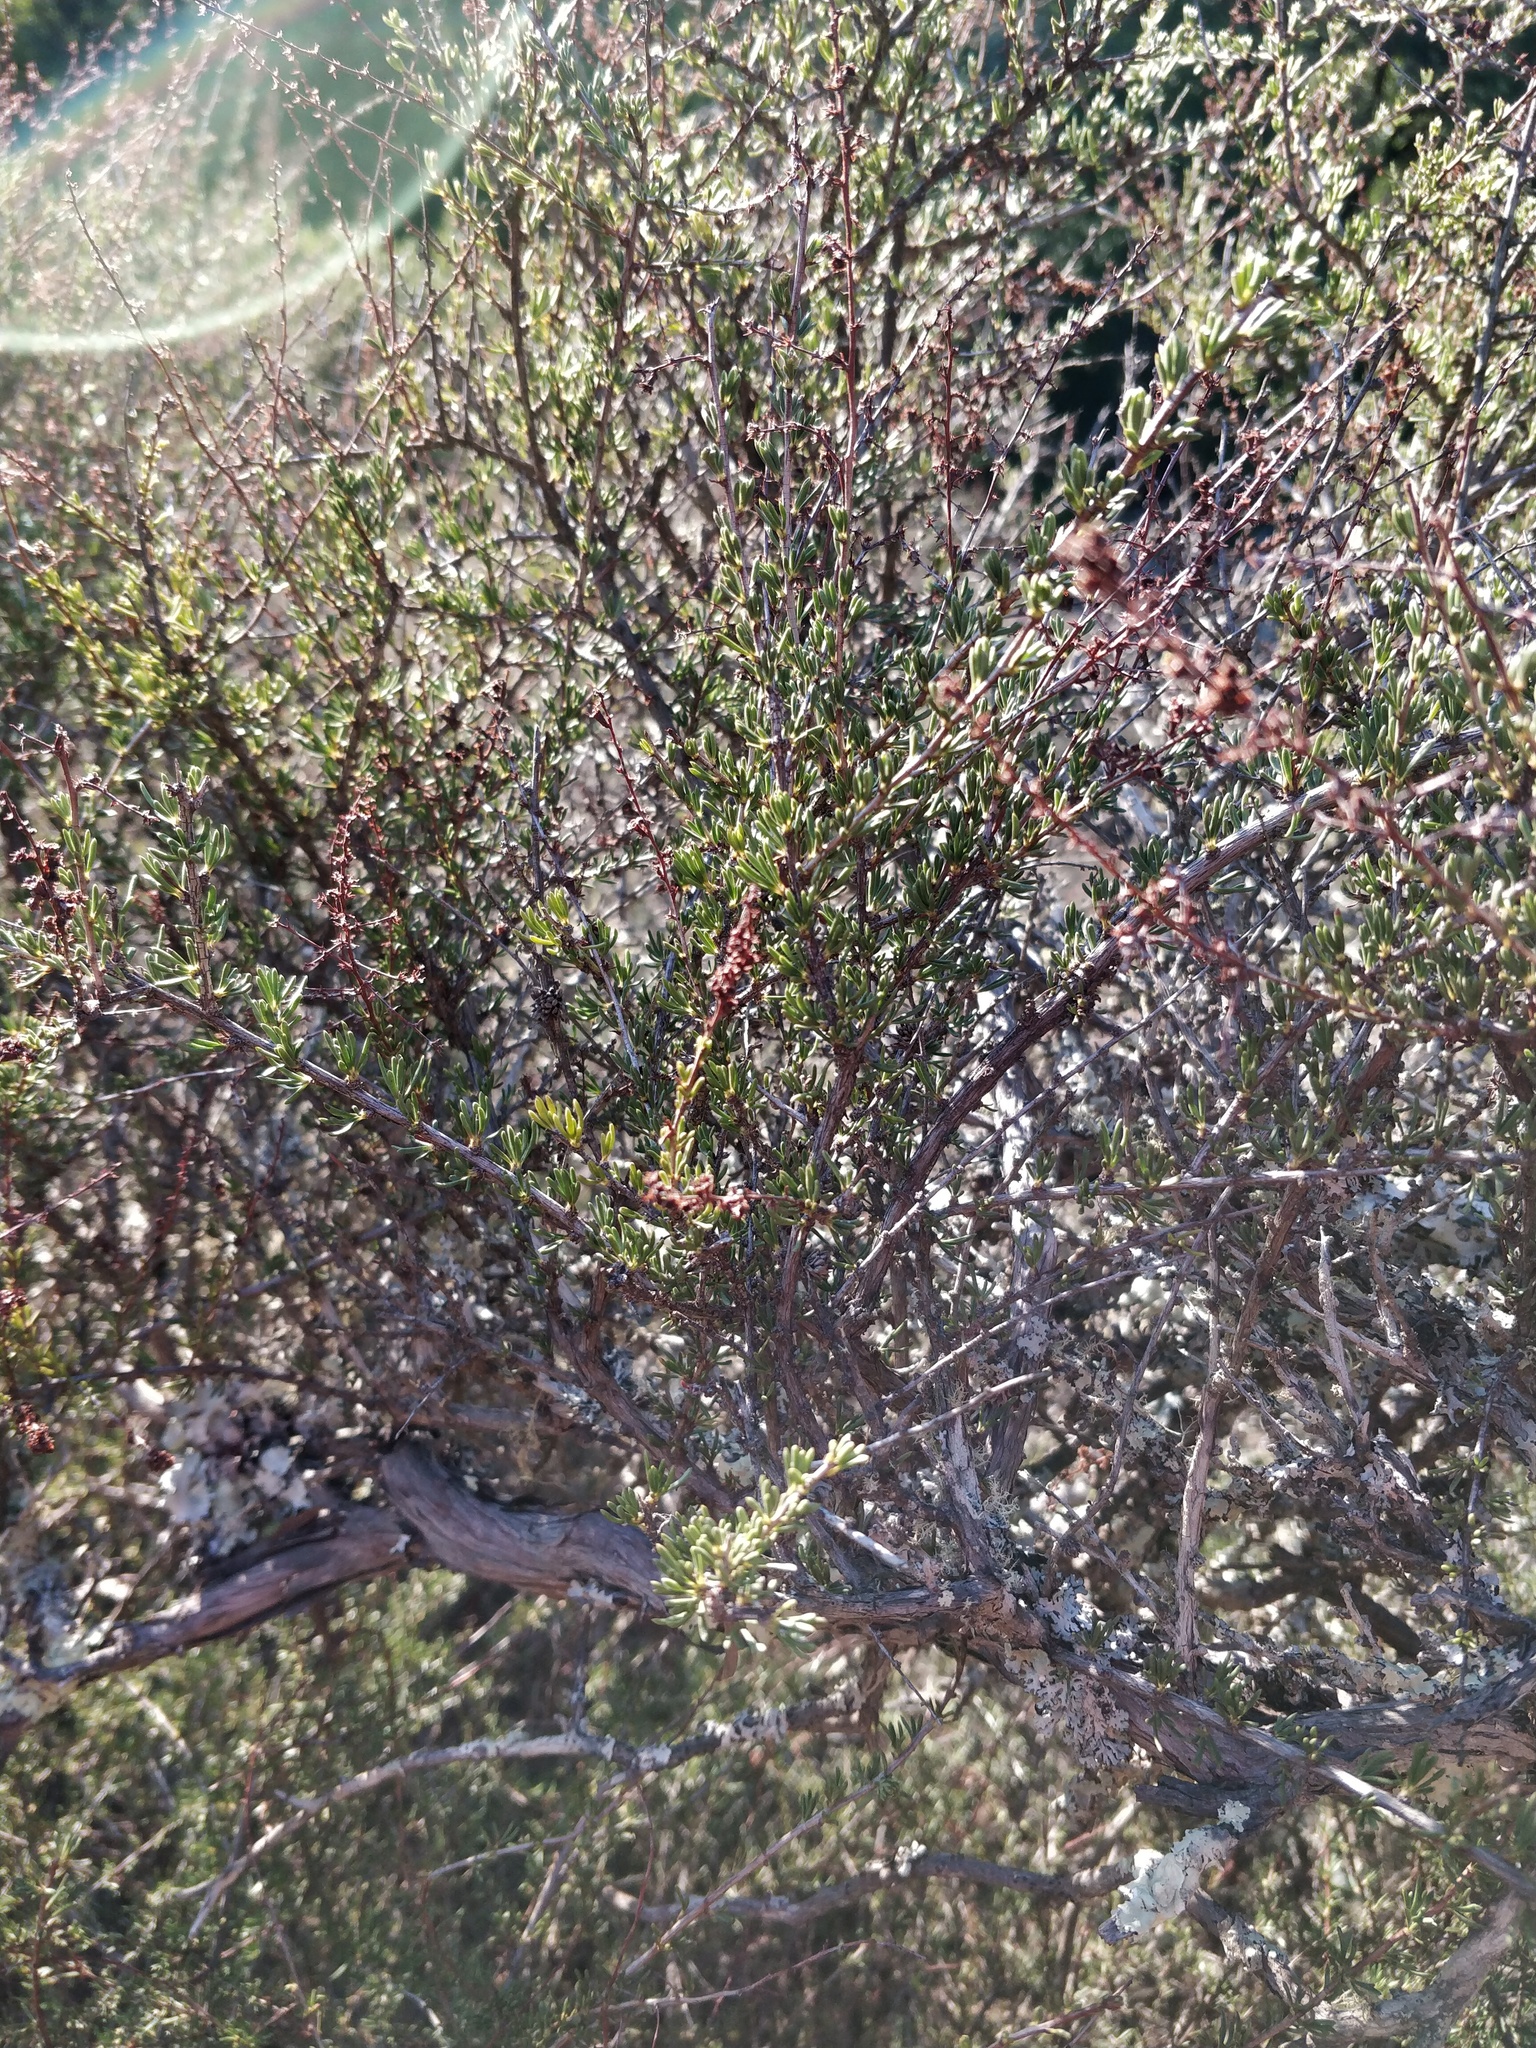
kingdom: Plantae
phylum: Tracheophyta
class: Magnoliopsida
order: Rosales
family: Rosaceae
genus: Adenostoma
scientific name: Adenostoma fasciculatum
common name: Chamise
